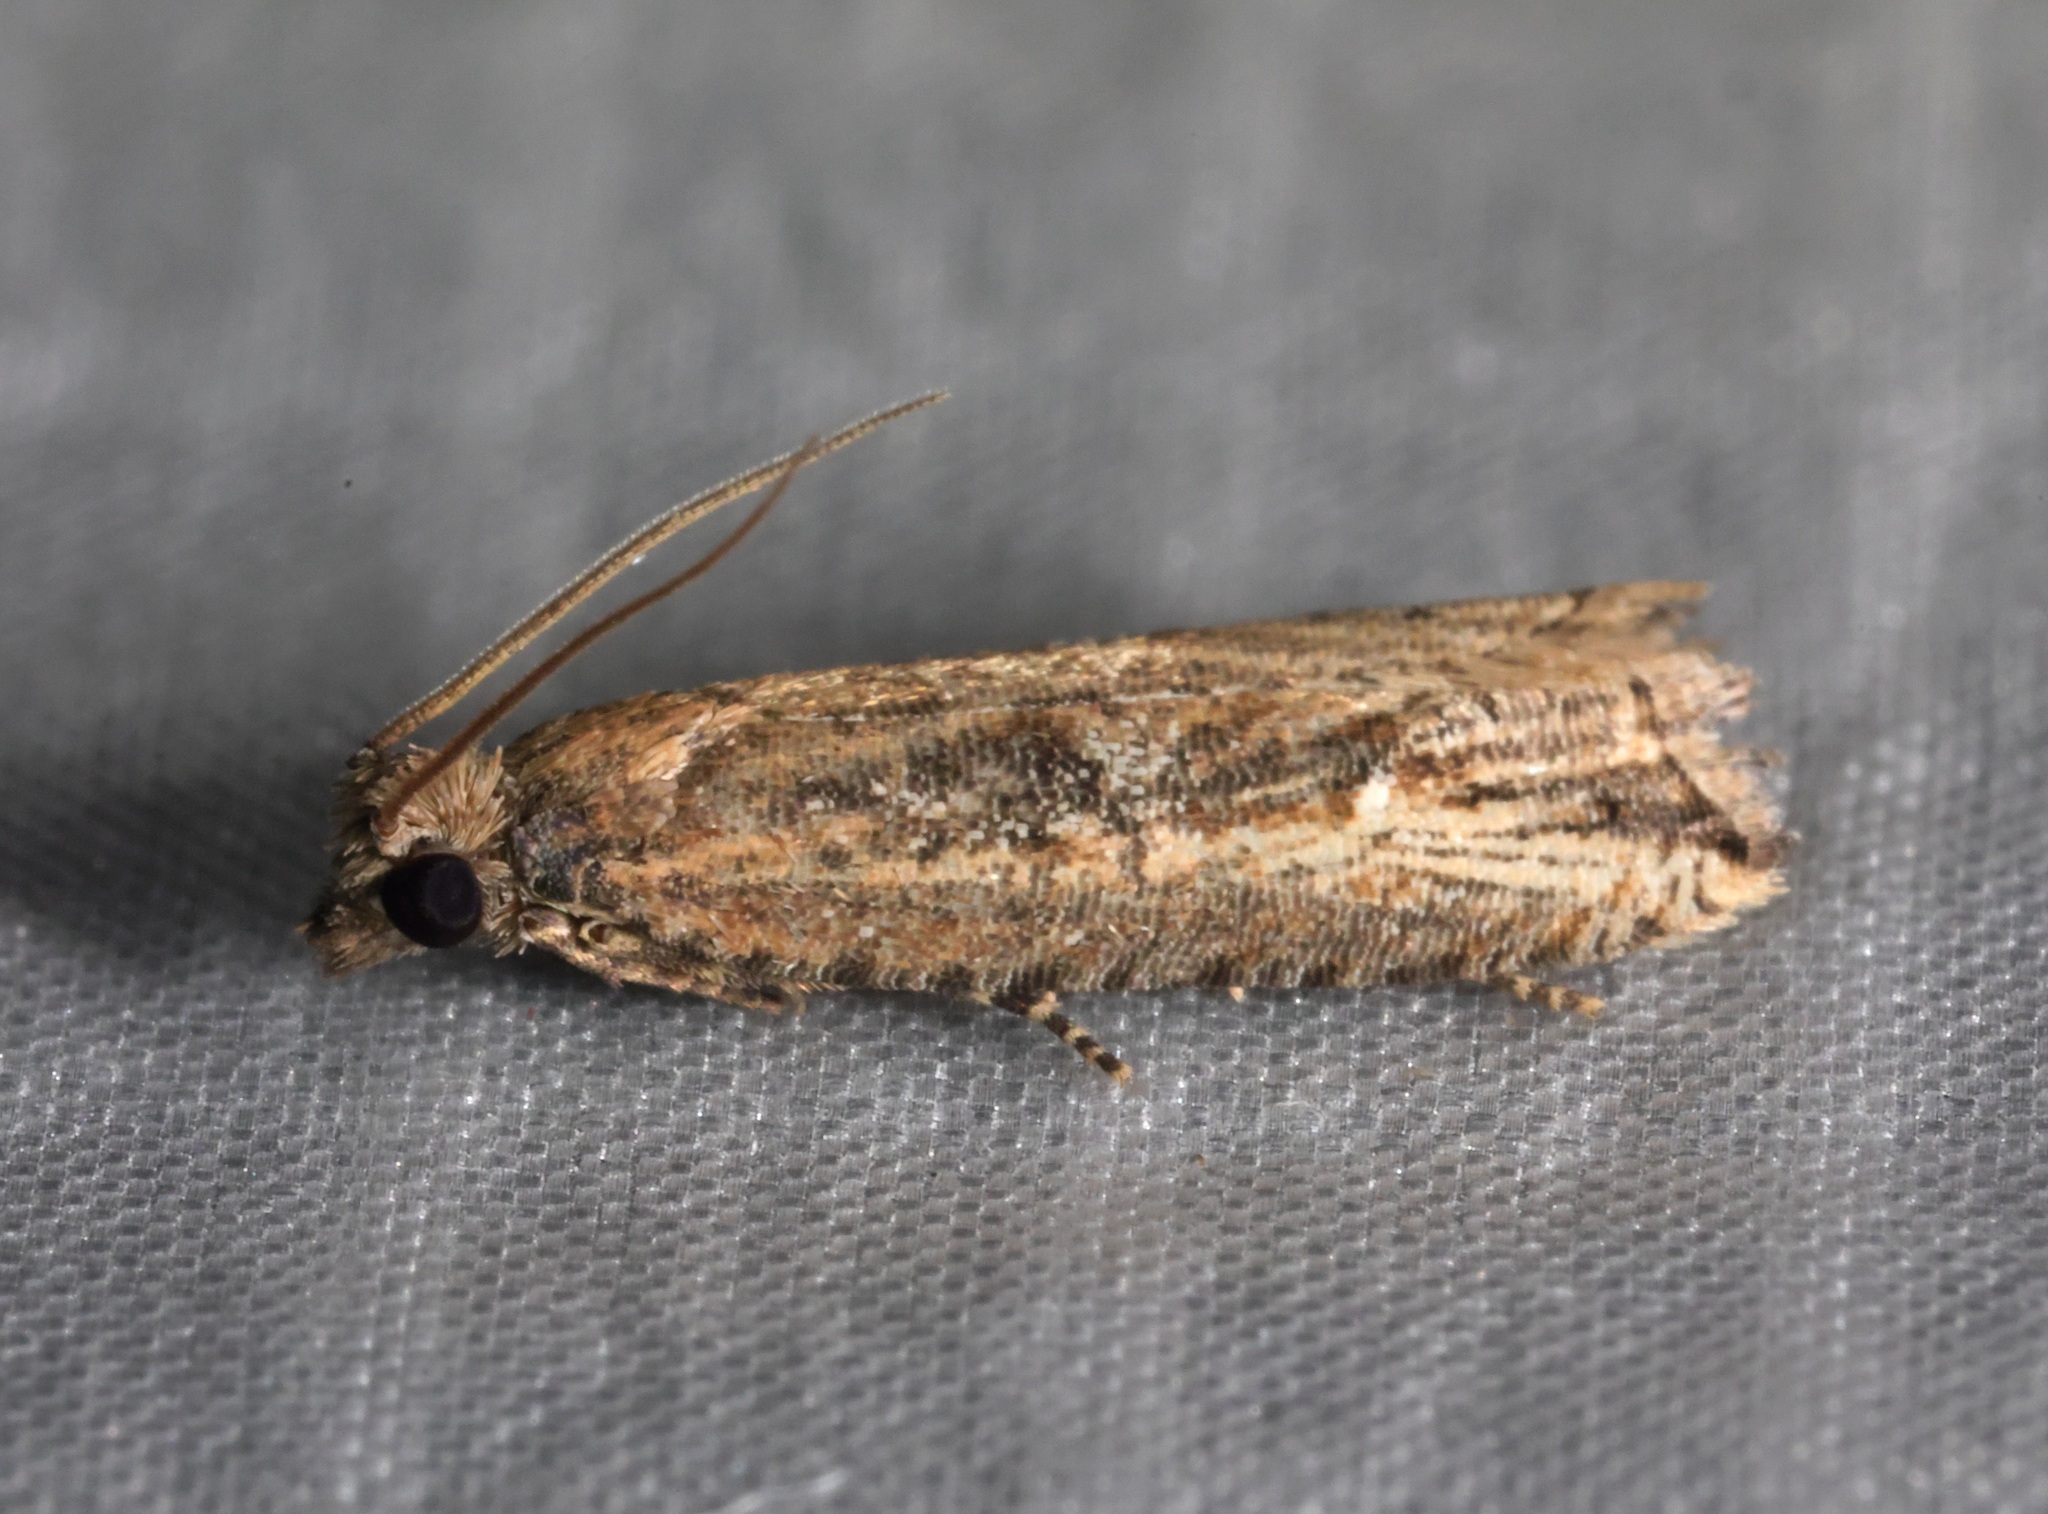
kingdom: Animalia
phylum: Arthropoda
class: Insecta
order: Lepidoptera
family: Tortricidae
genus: Bactra
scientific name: Bactra venosana
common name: Nutgrass borer
